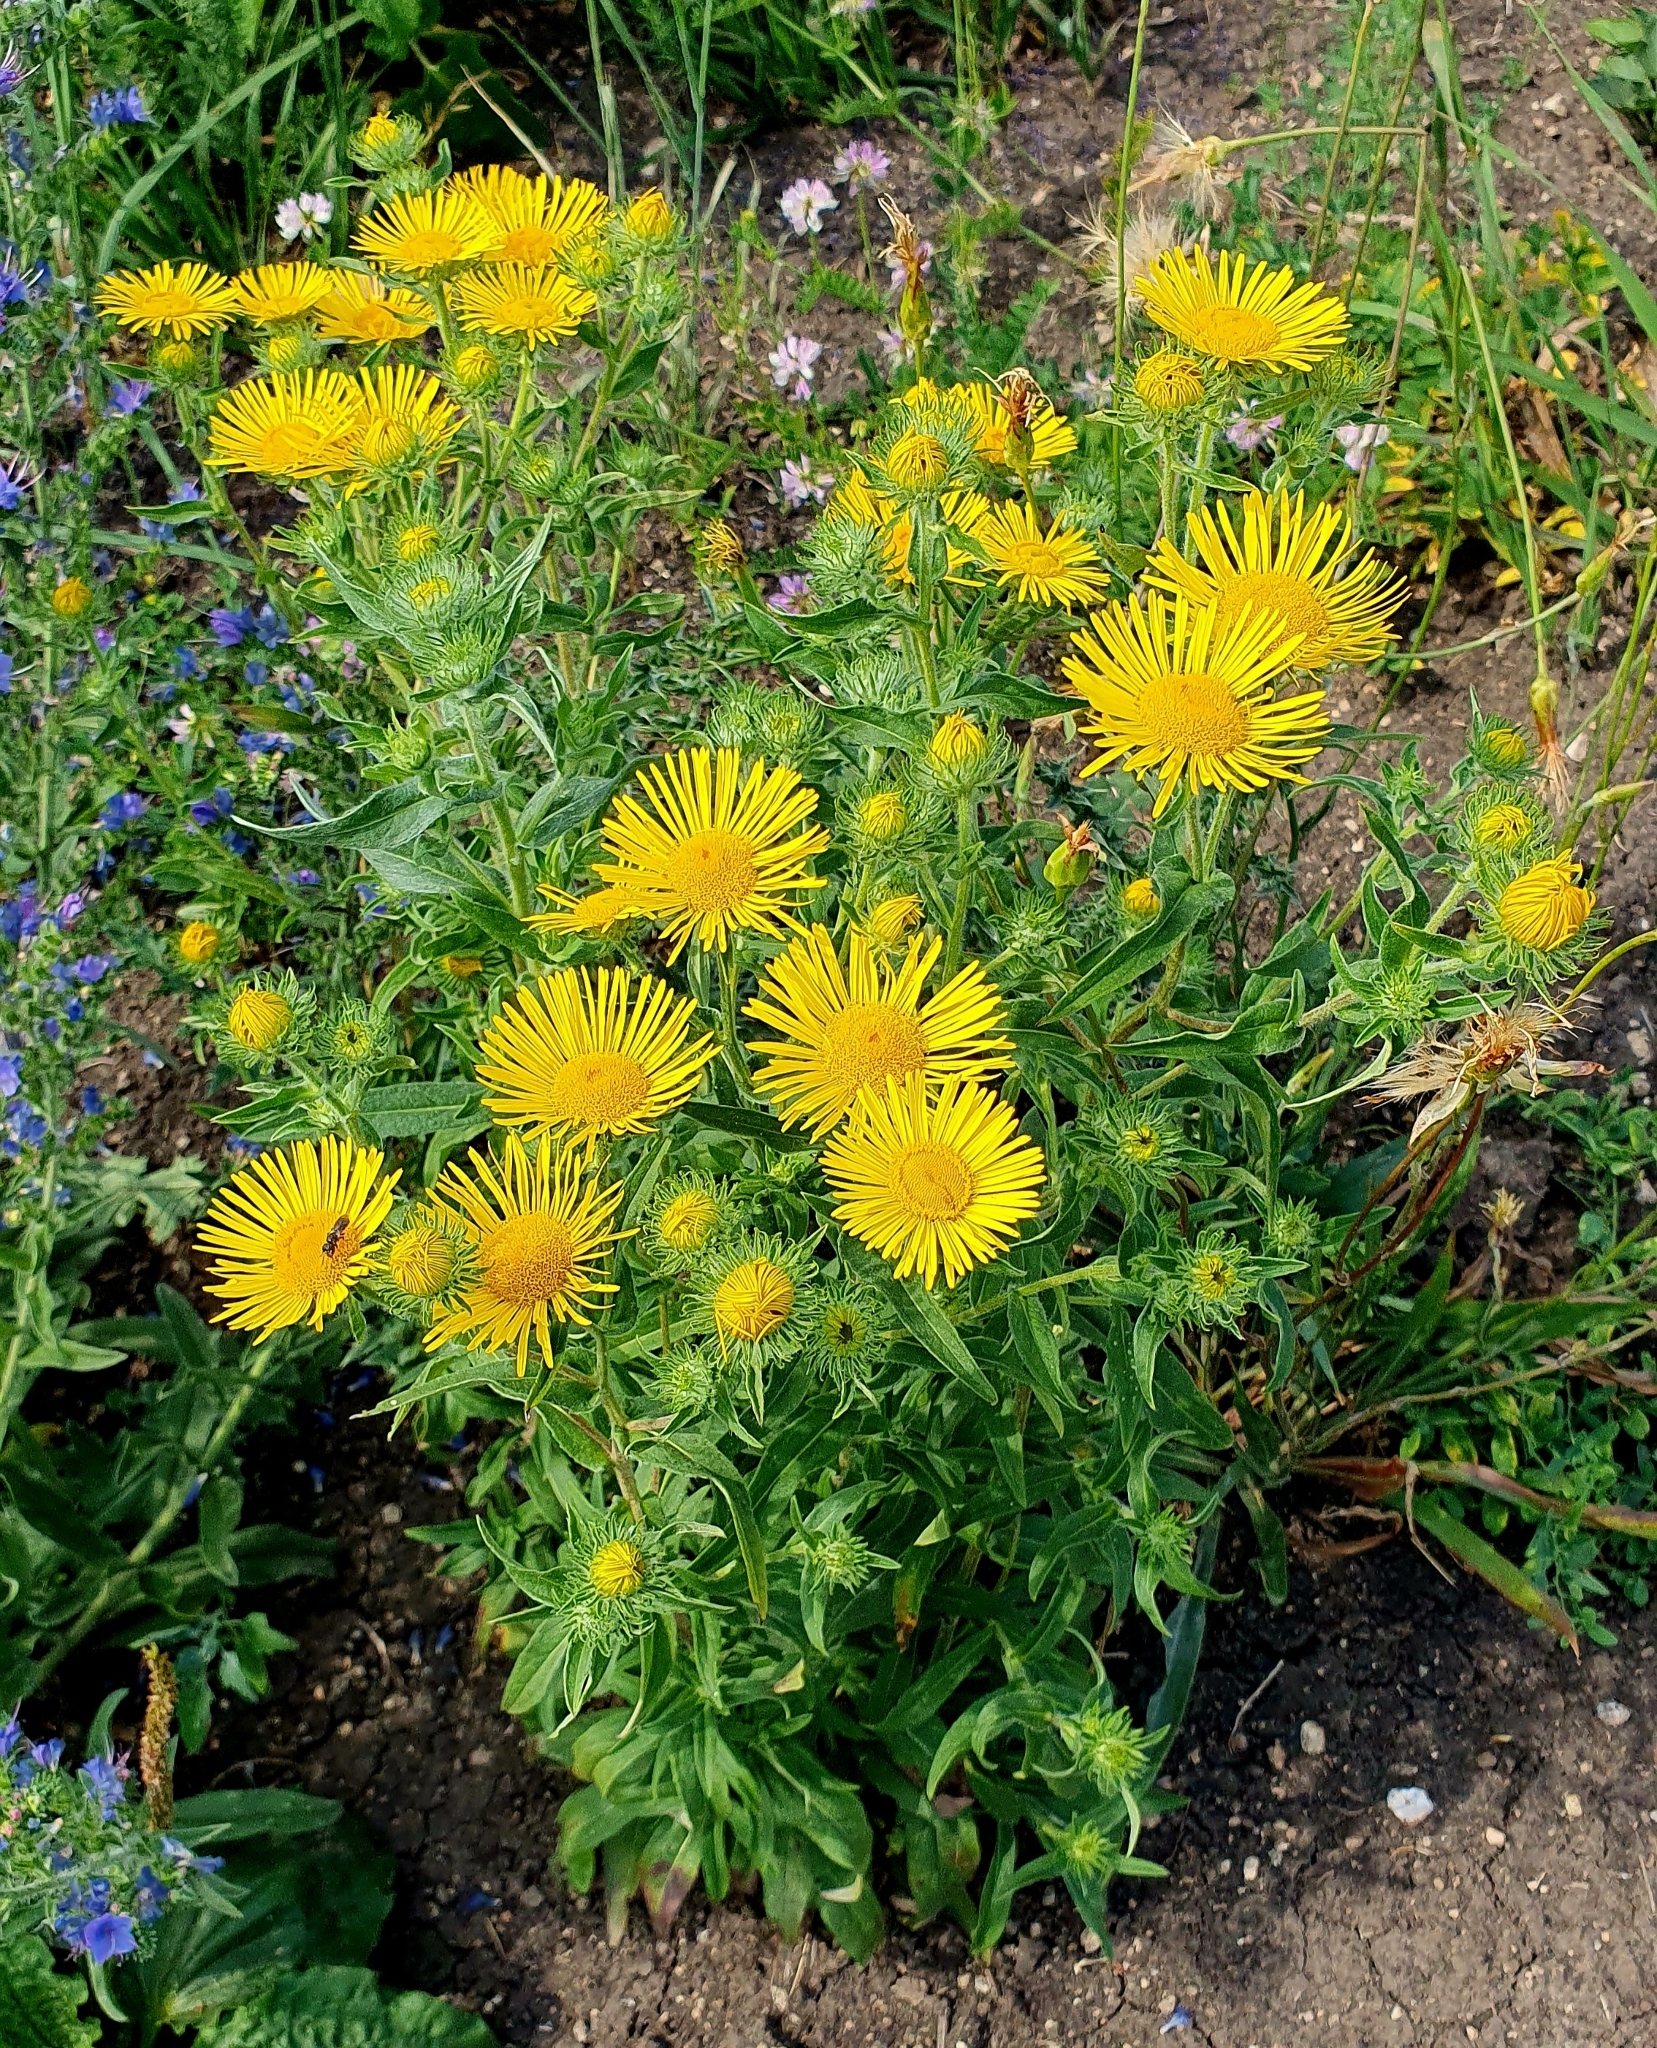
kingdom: Plantae
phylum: Tracheophyta
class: Magnoliopsida
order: Asterales
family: Asteraceae
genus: Pentanema
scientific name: Pentanema britannicum
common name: British elecampane
